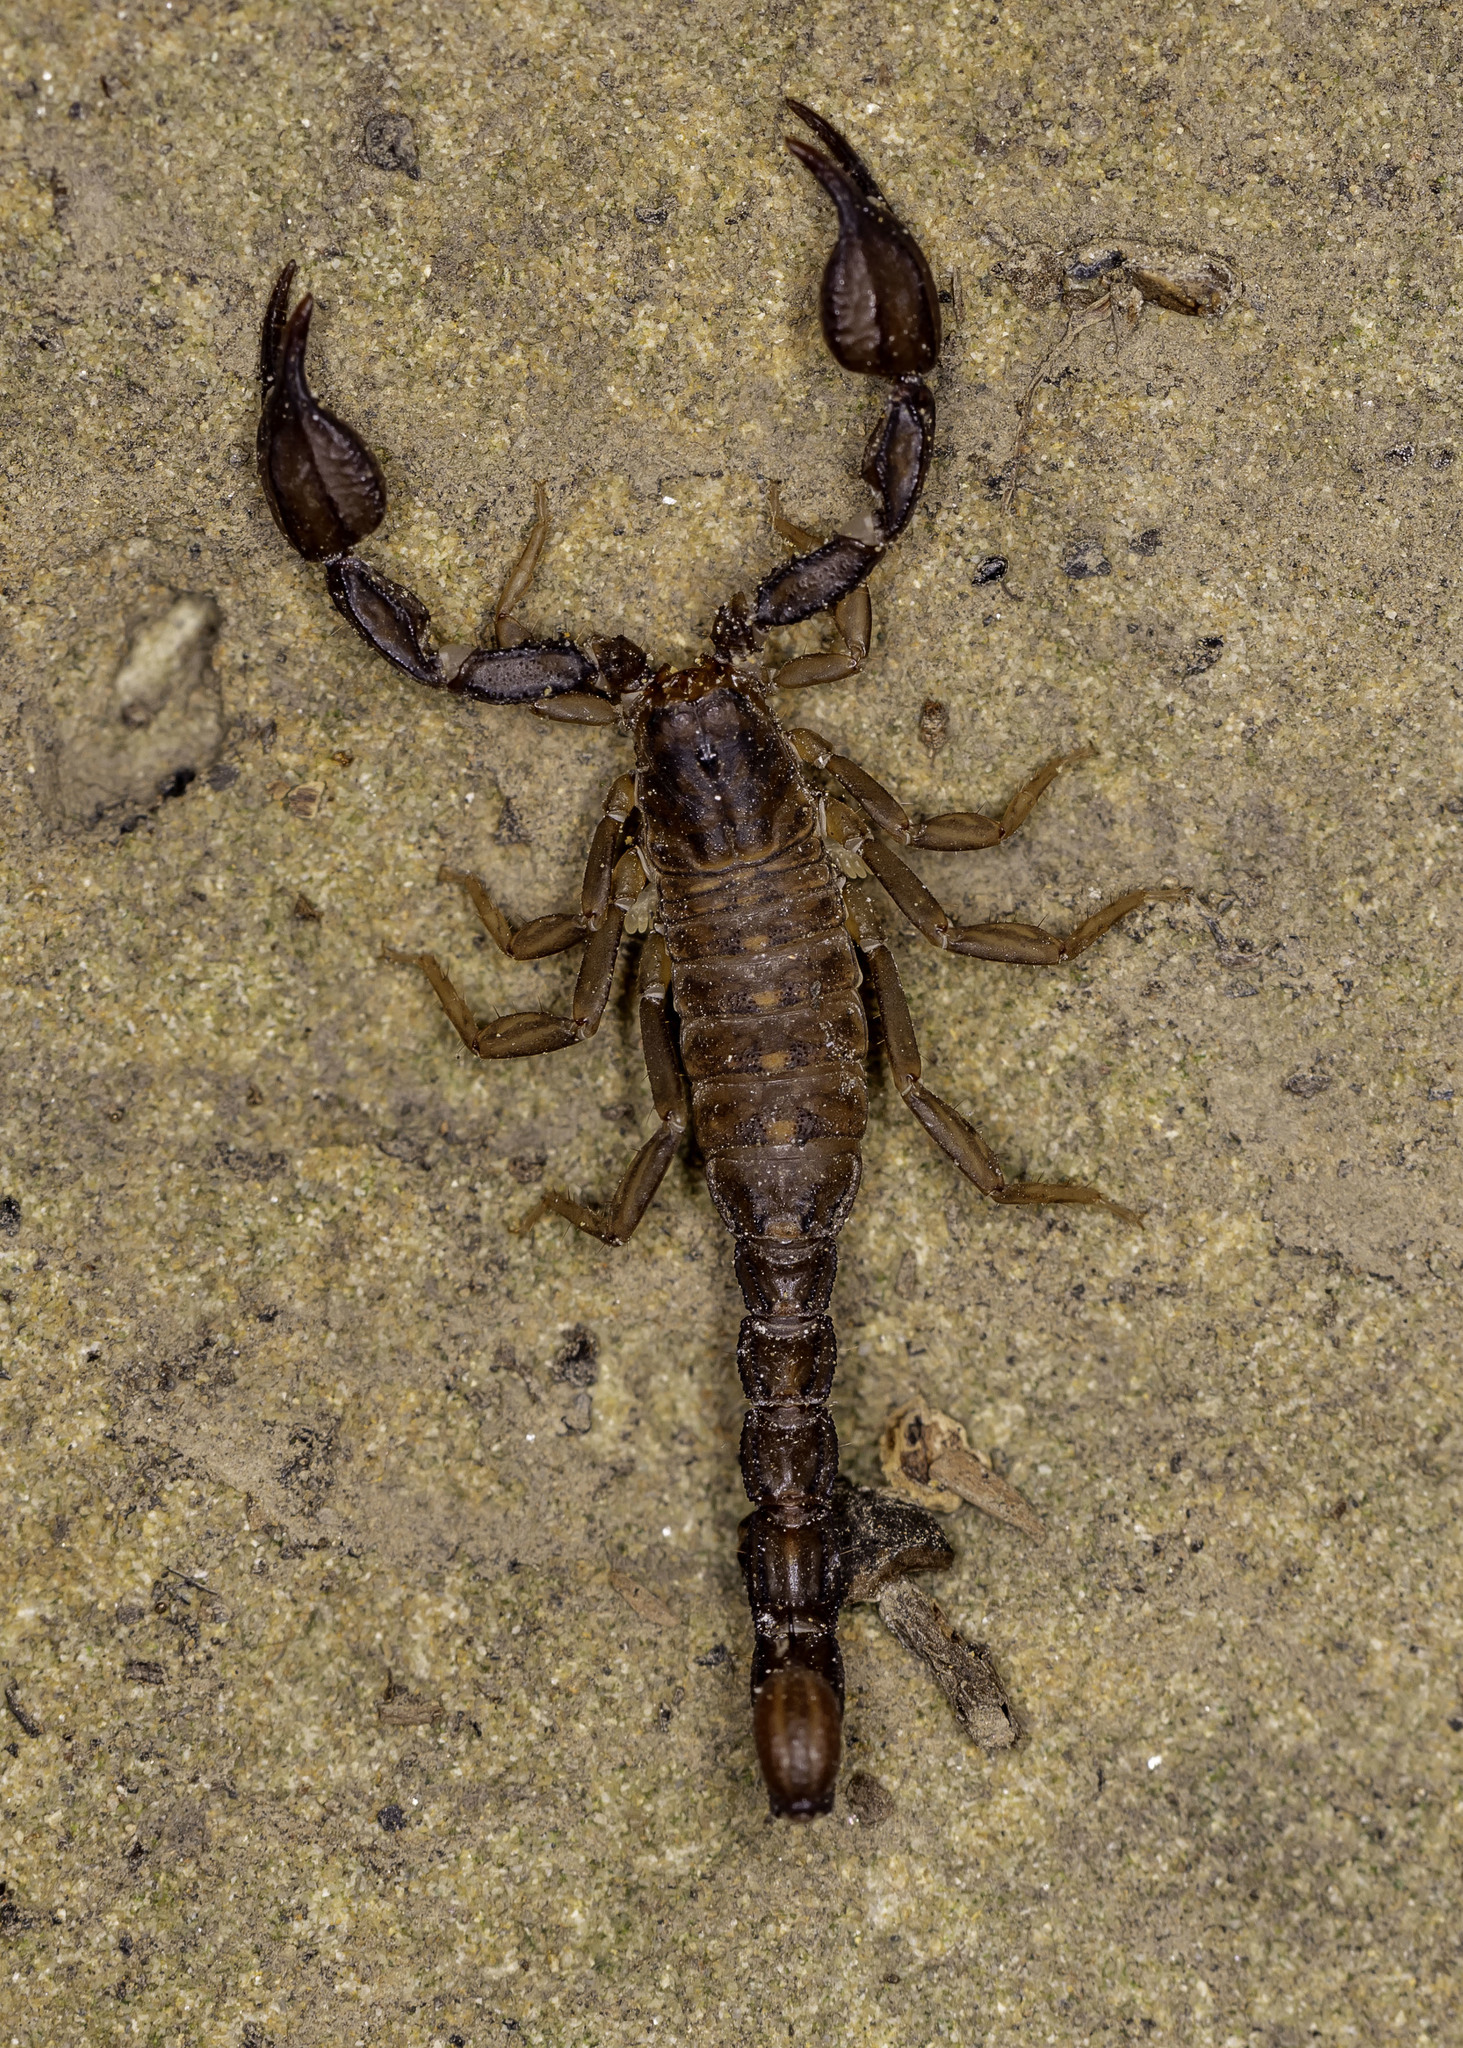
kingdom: Animalia
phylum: Arthropoda
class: Arachnida
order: Scorpiones
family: Vaejovidae
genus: Uroctonites
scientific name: Uroctonites montereus
